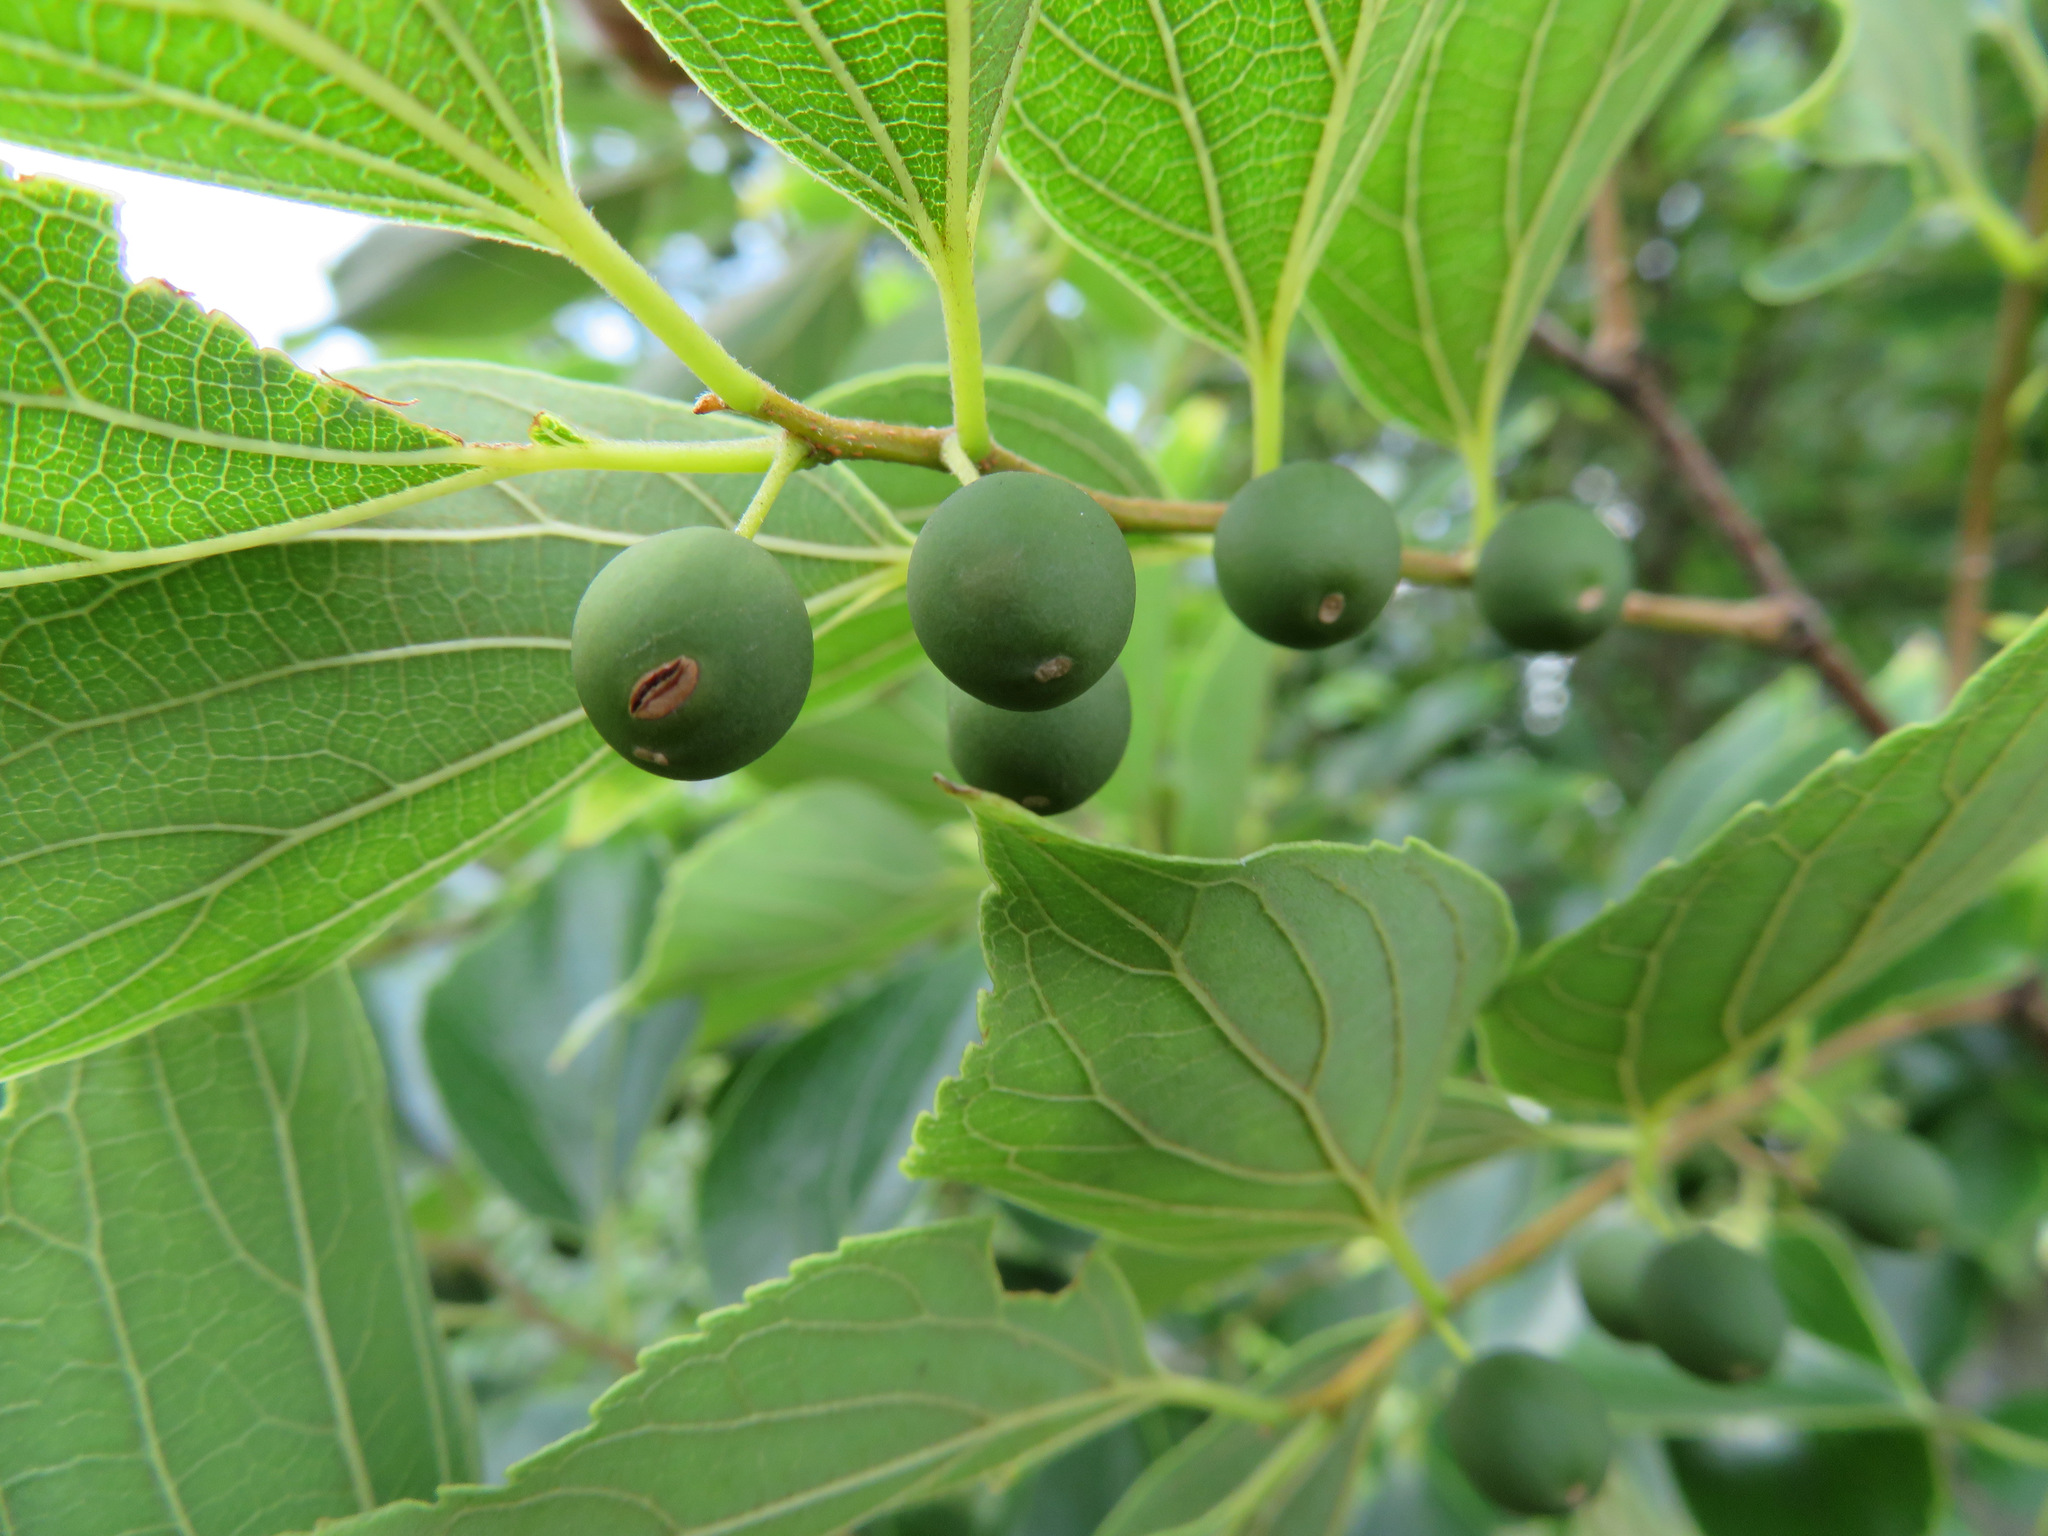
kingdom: Plantae
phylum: Tracheophyta
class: Magnoliopsida
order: Rosales
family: Cannabaceae
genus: Celtis
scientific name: Celtis sinensis
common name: Chinese hackberry
